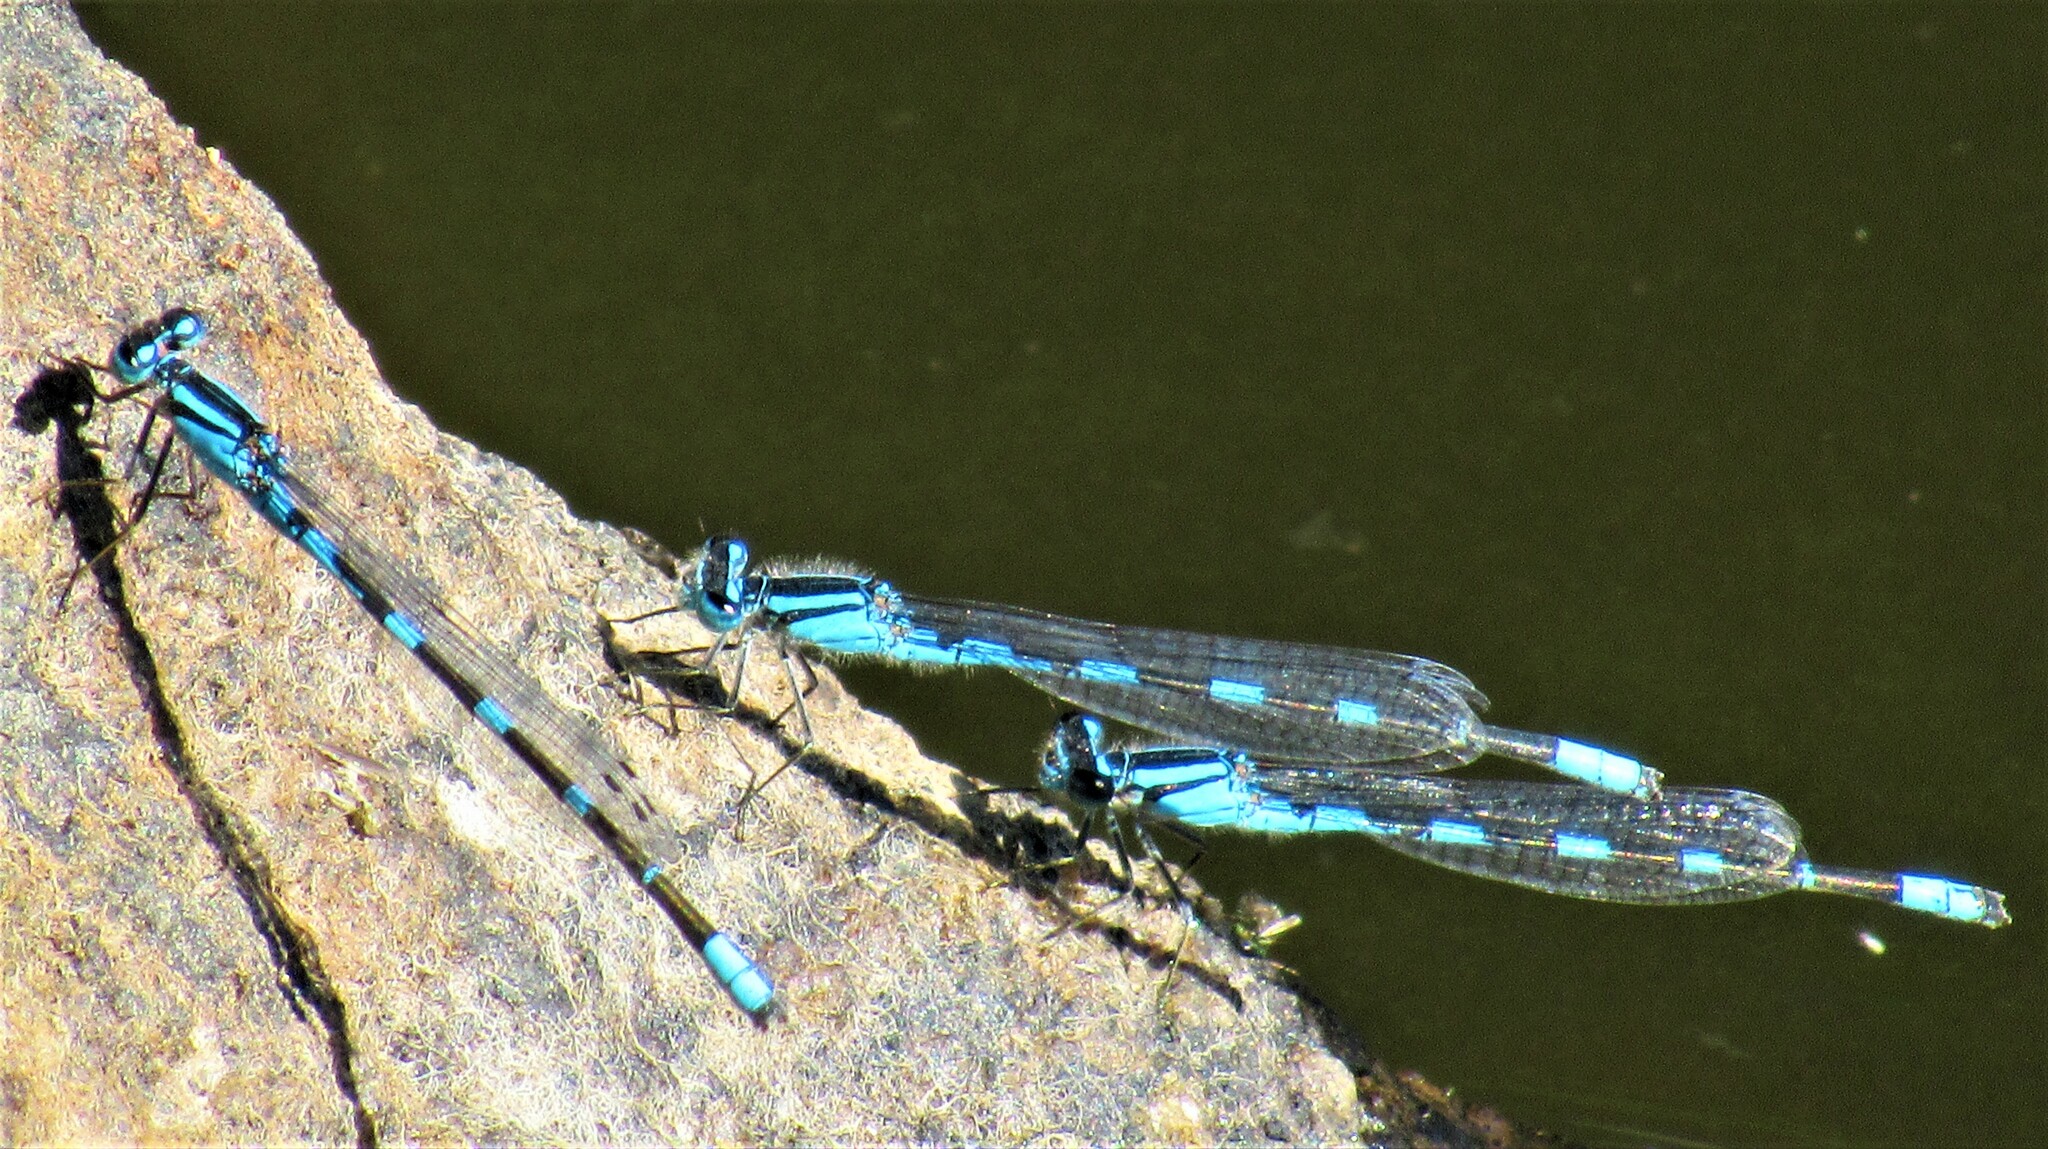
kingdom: Animalia
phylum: Arthropoda
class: Insecta
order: Odonata
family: Coenagrionidae
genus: Enallagma
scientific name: Enallagma carunculatum
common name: Tule bluet
